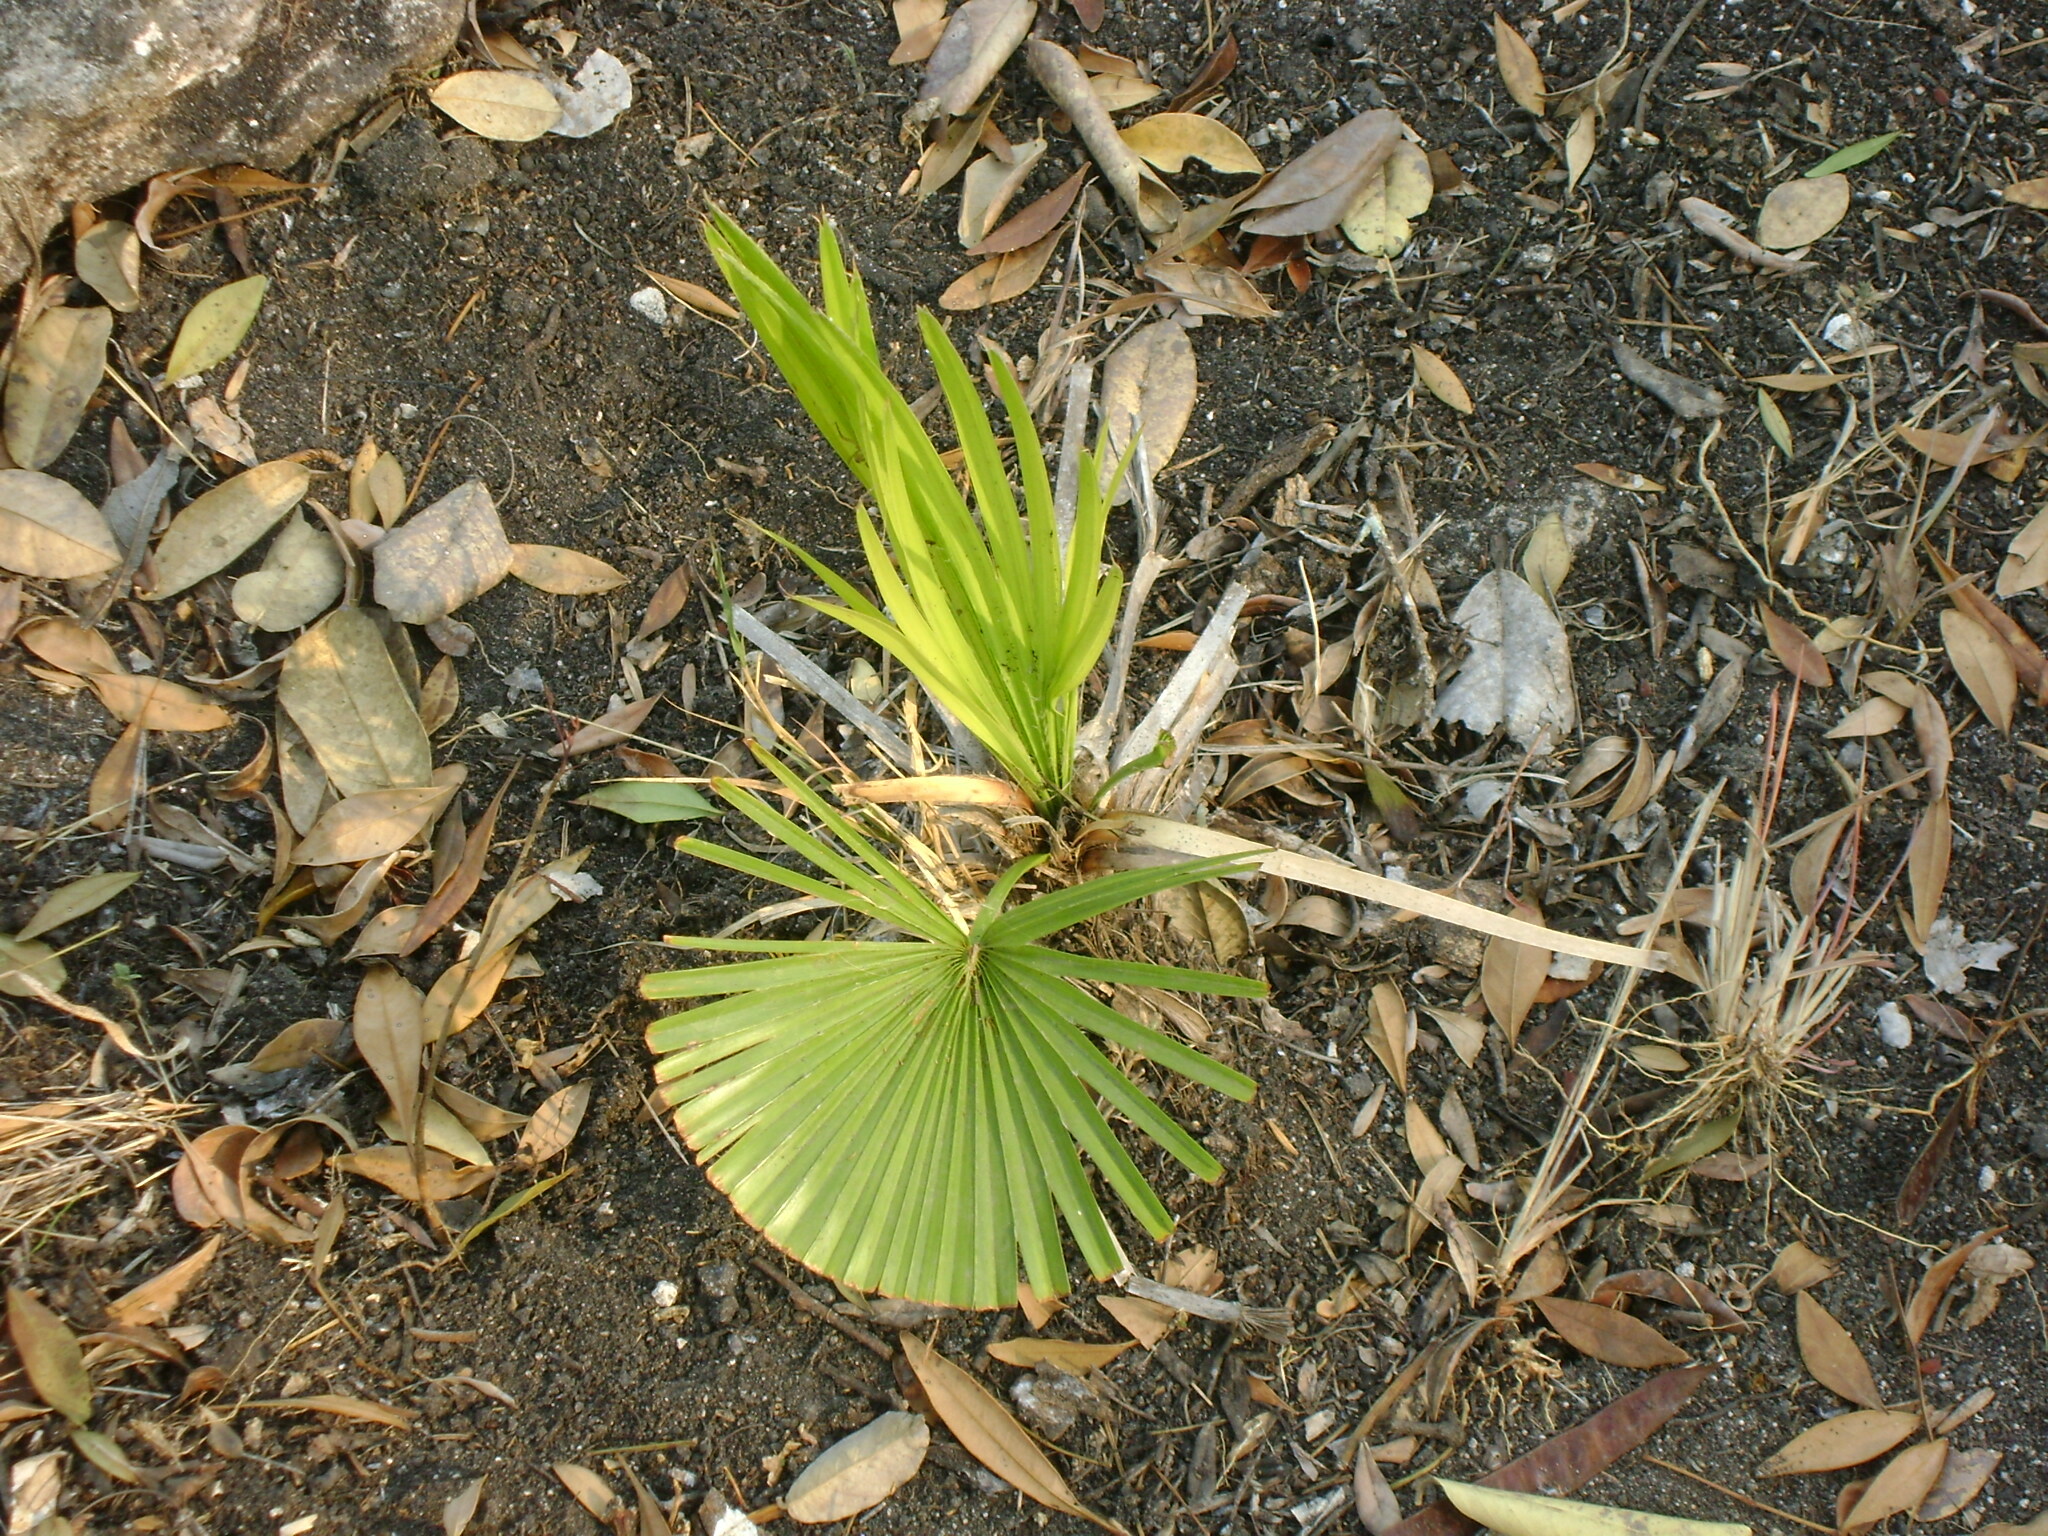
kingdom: Plantae
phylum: Tracheophyta
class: Liliopsida
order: Arecales
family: Arecaceae
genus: Brahea
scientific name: Brahea dulcis
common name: Apak palm
